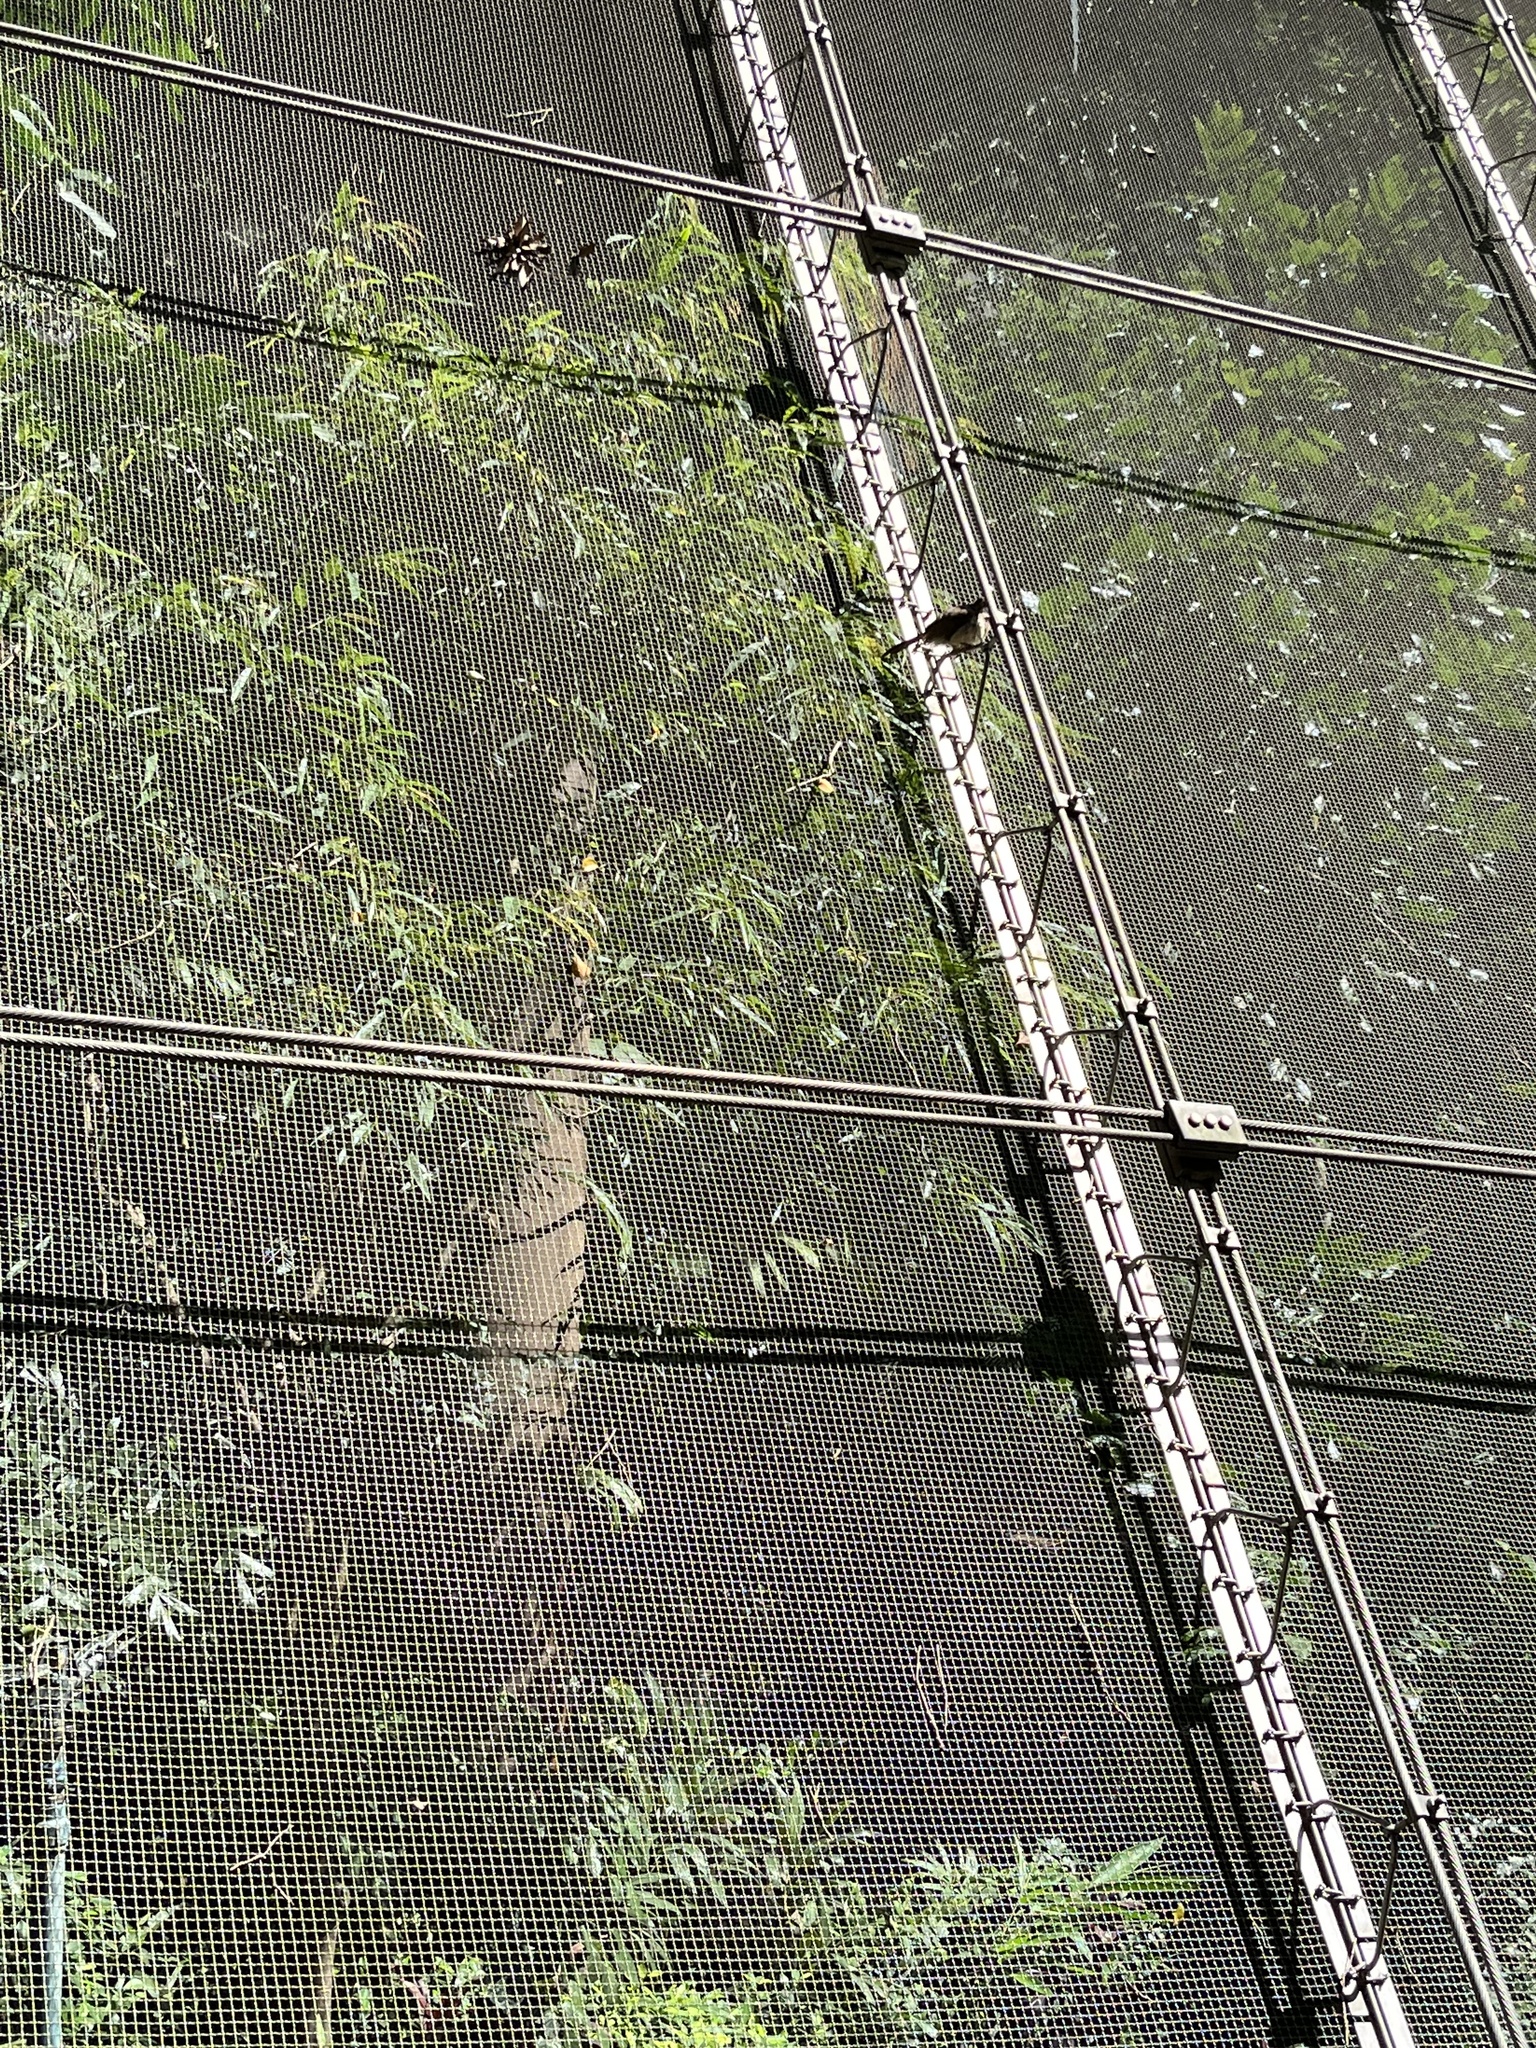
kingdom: Animalia
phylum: Chordata
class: Aves
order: Passeriformes
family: Leiothrichidae
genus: Garrulax
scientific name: Garrulax perspicillatus
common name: Masked laughingthrush
